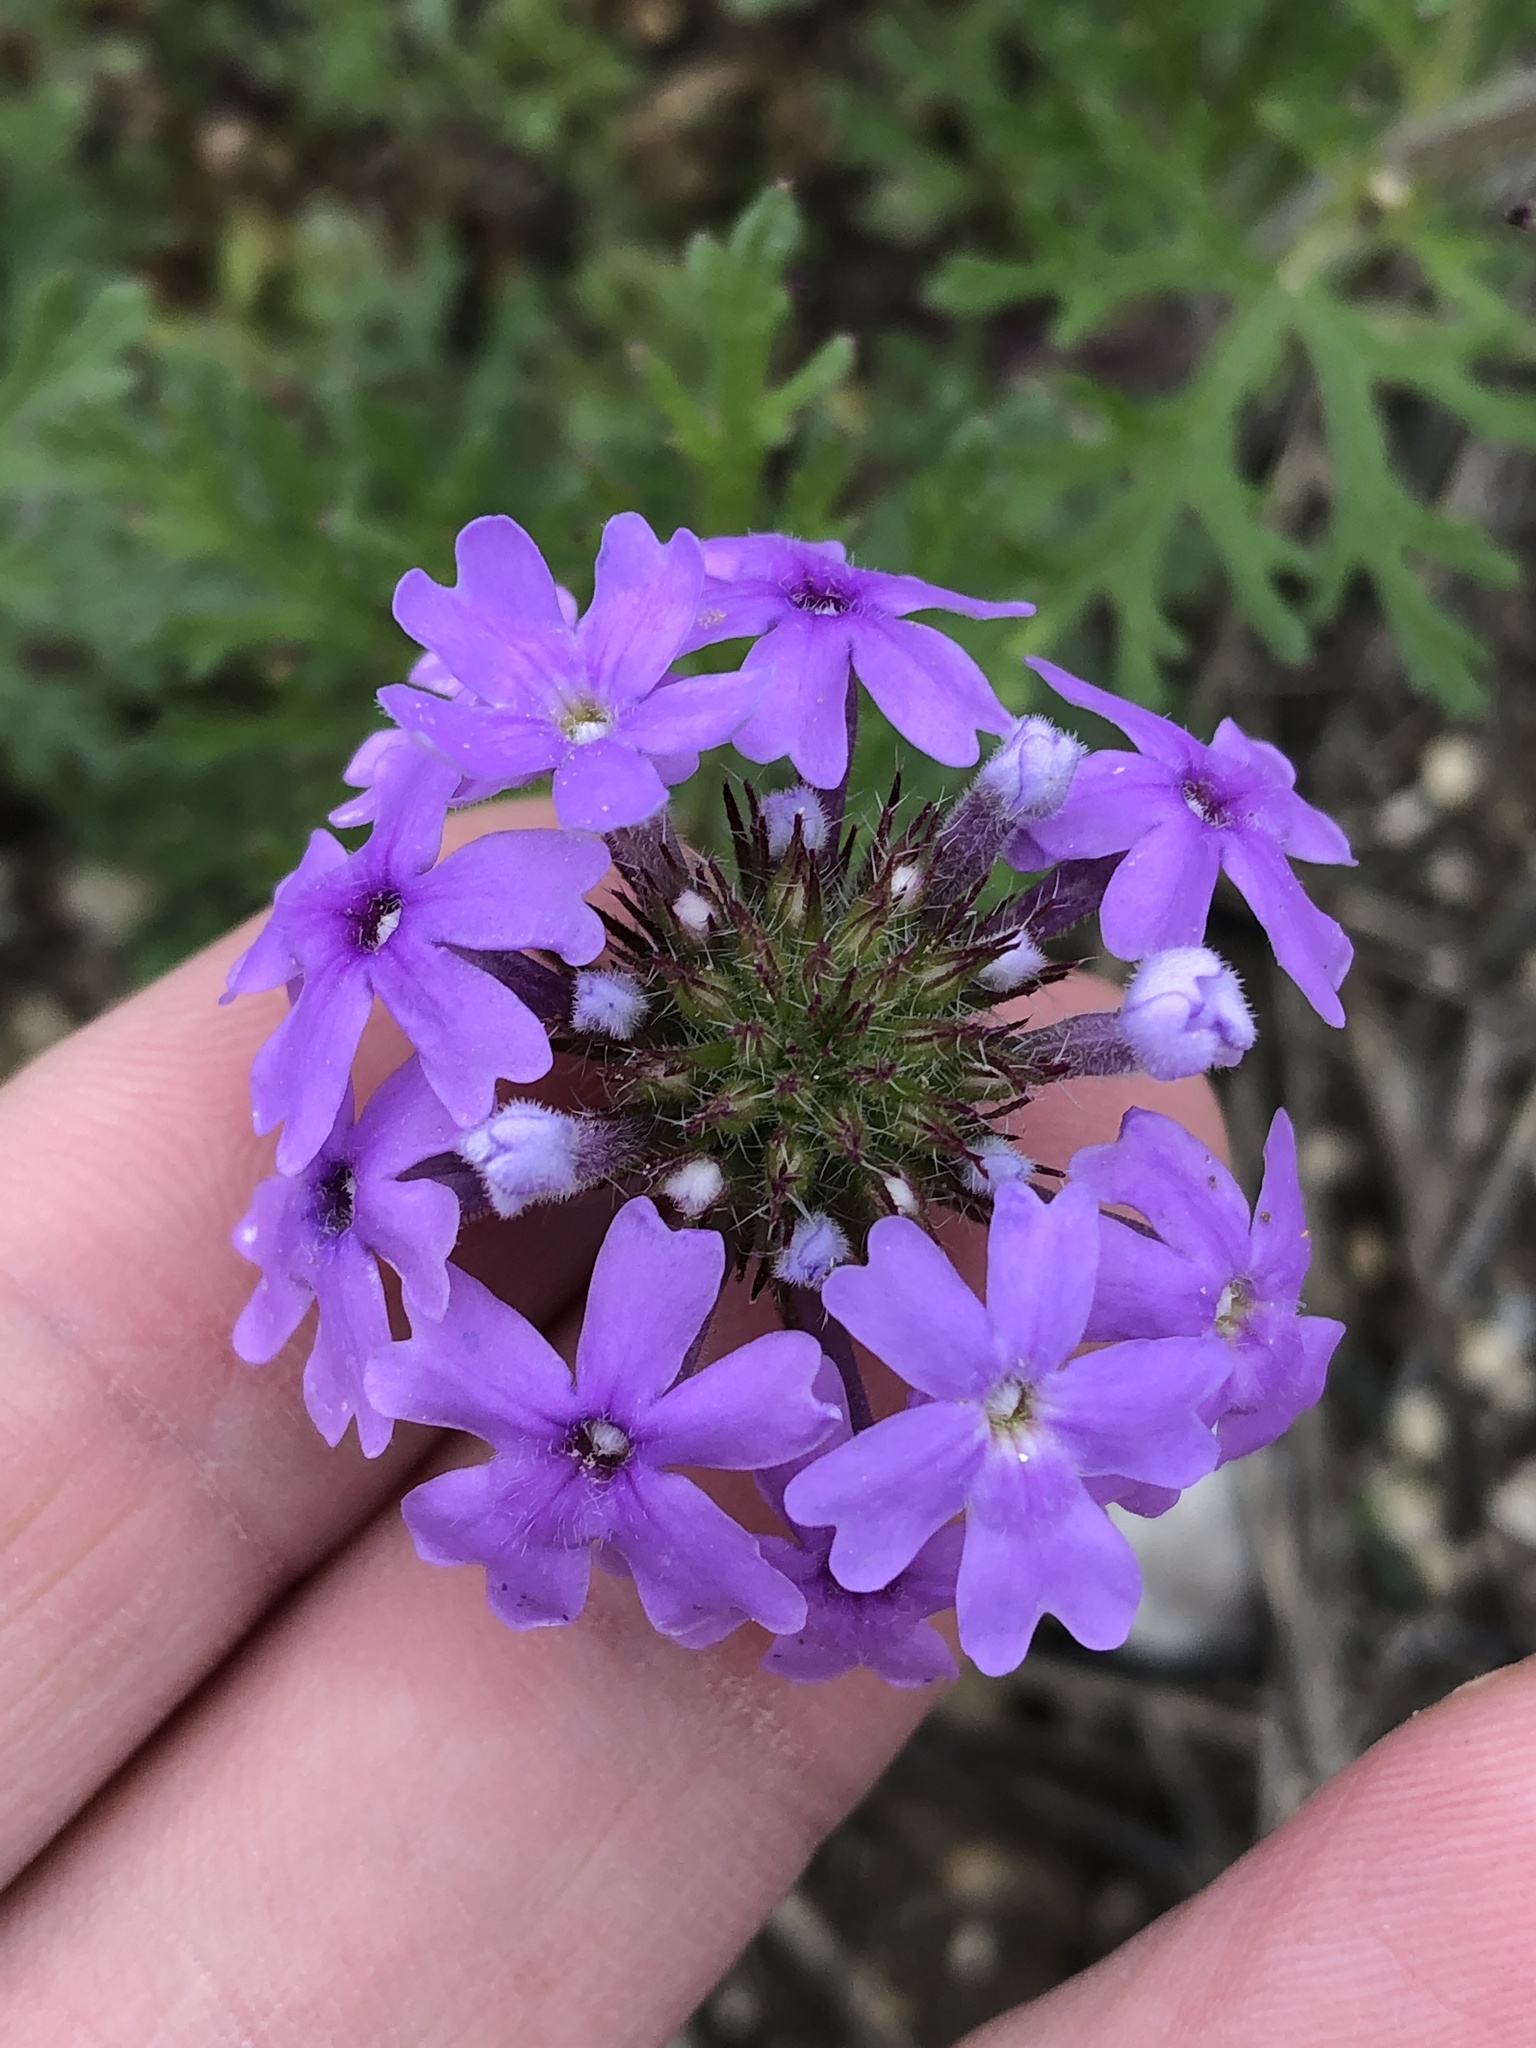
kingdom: Plantae
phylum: Tracheophyta
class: Magnoliopsida
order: Lamiales
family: Verbenaceae
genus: Verbena
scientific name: Verbena bipinnatifida
